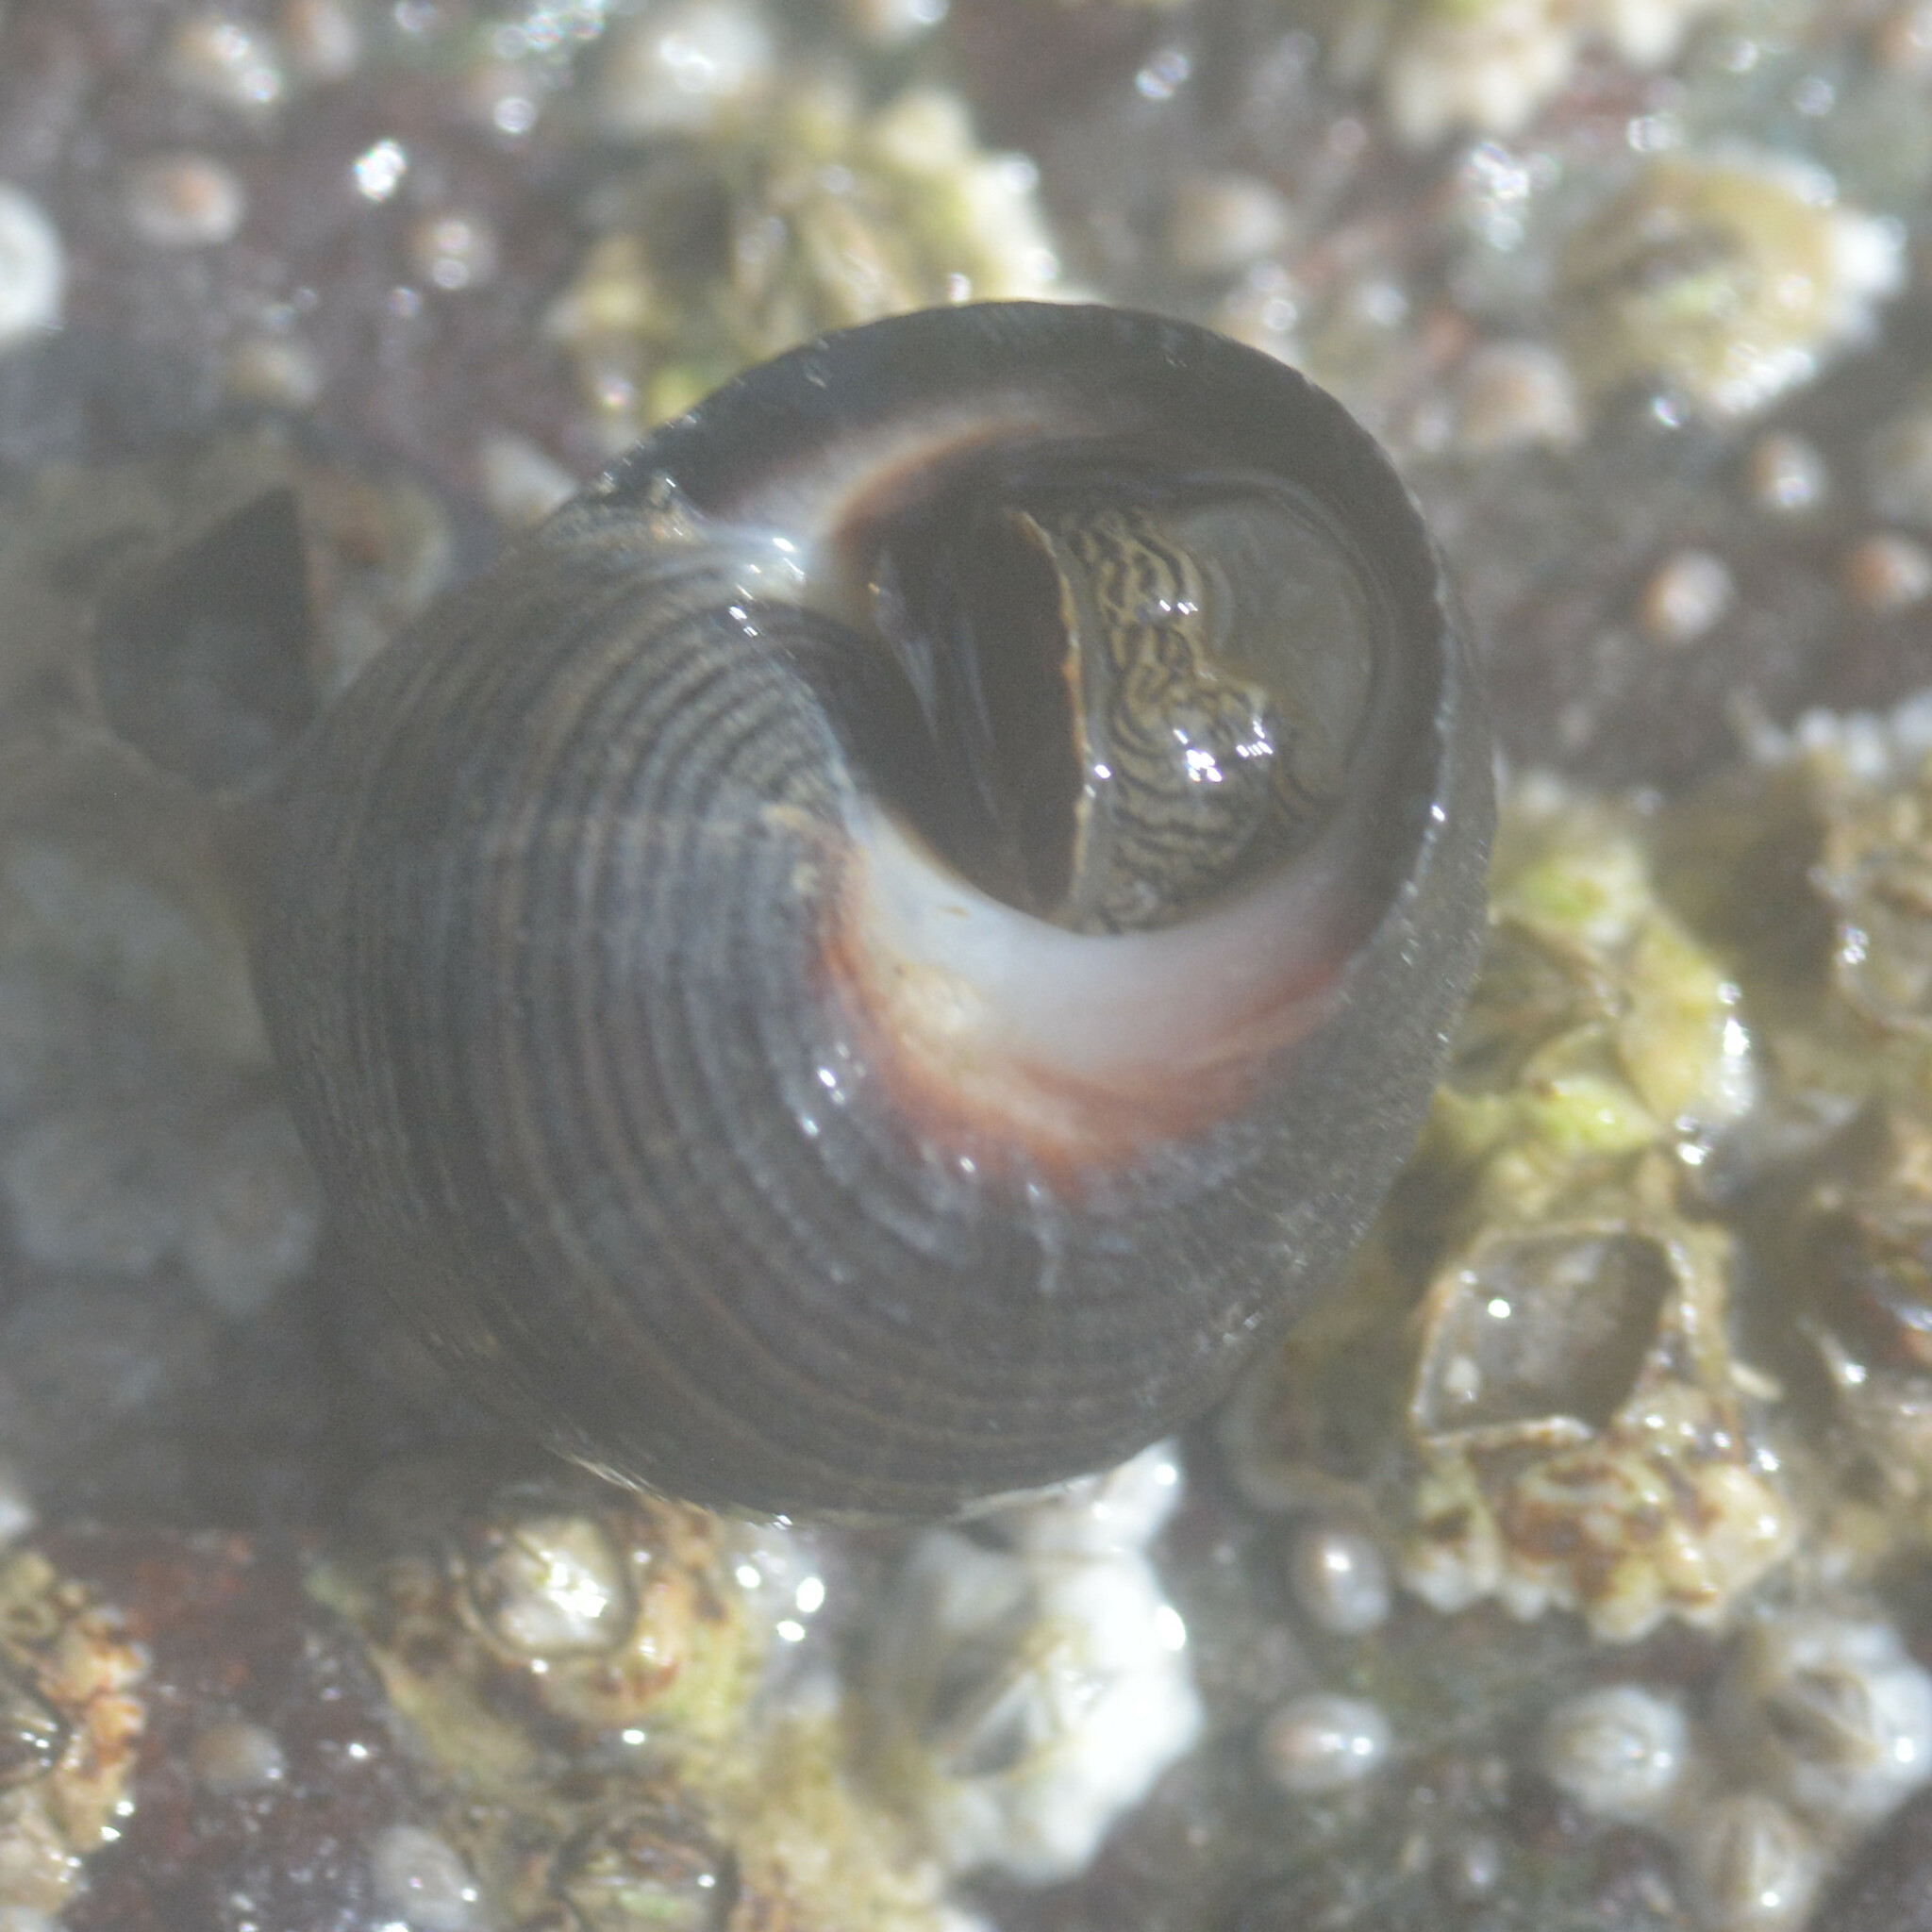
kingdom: Animalia
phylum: Mollusca
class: Gastropoda
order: Littorinimorpha
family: Littorinidae
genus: Littorina
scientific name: Littorina littorea
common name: Common periwinkle
